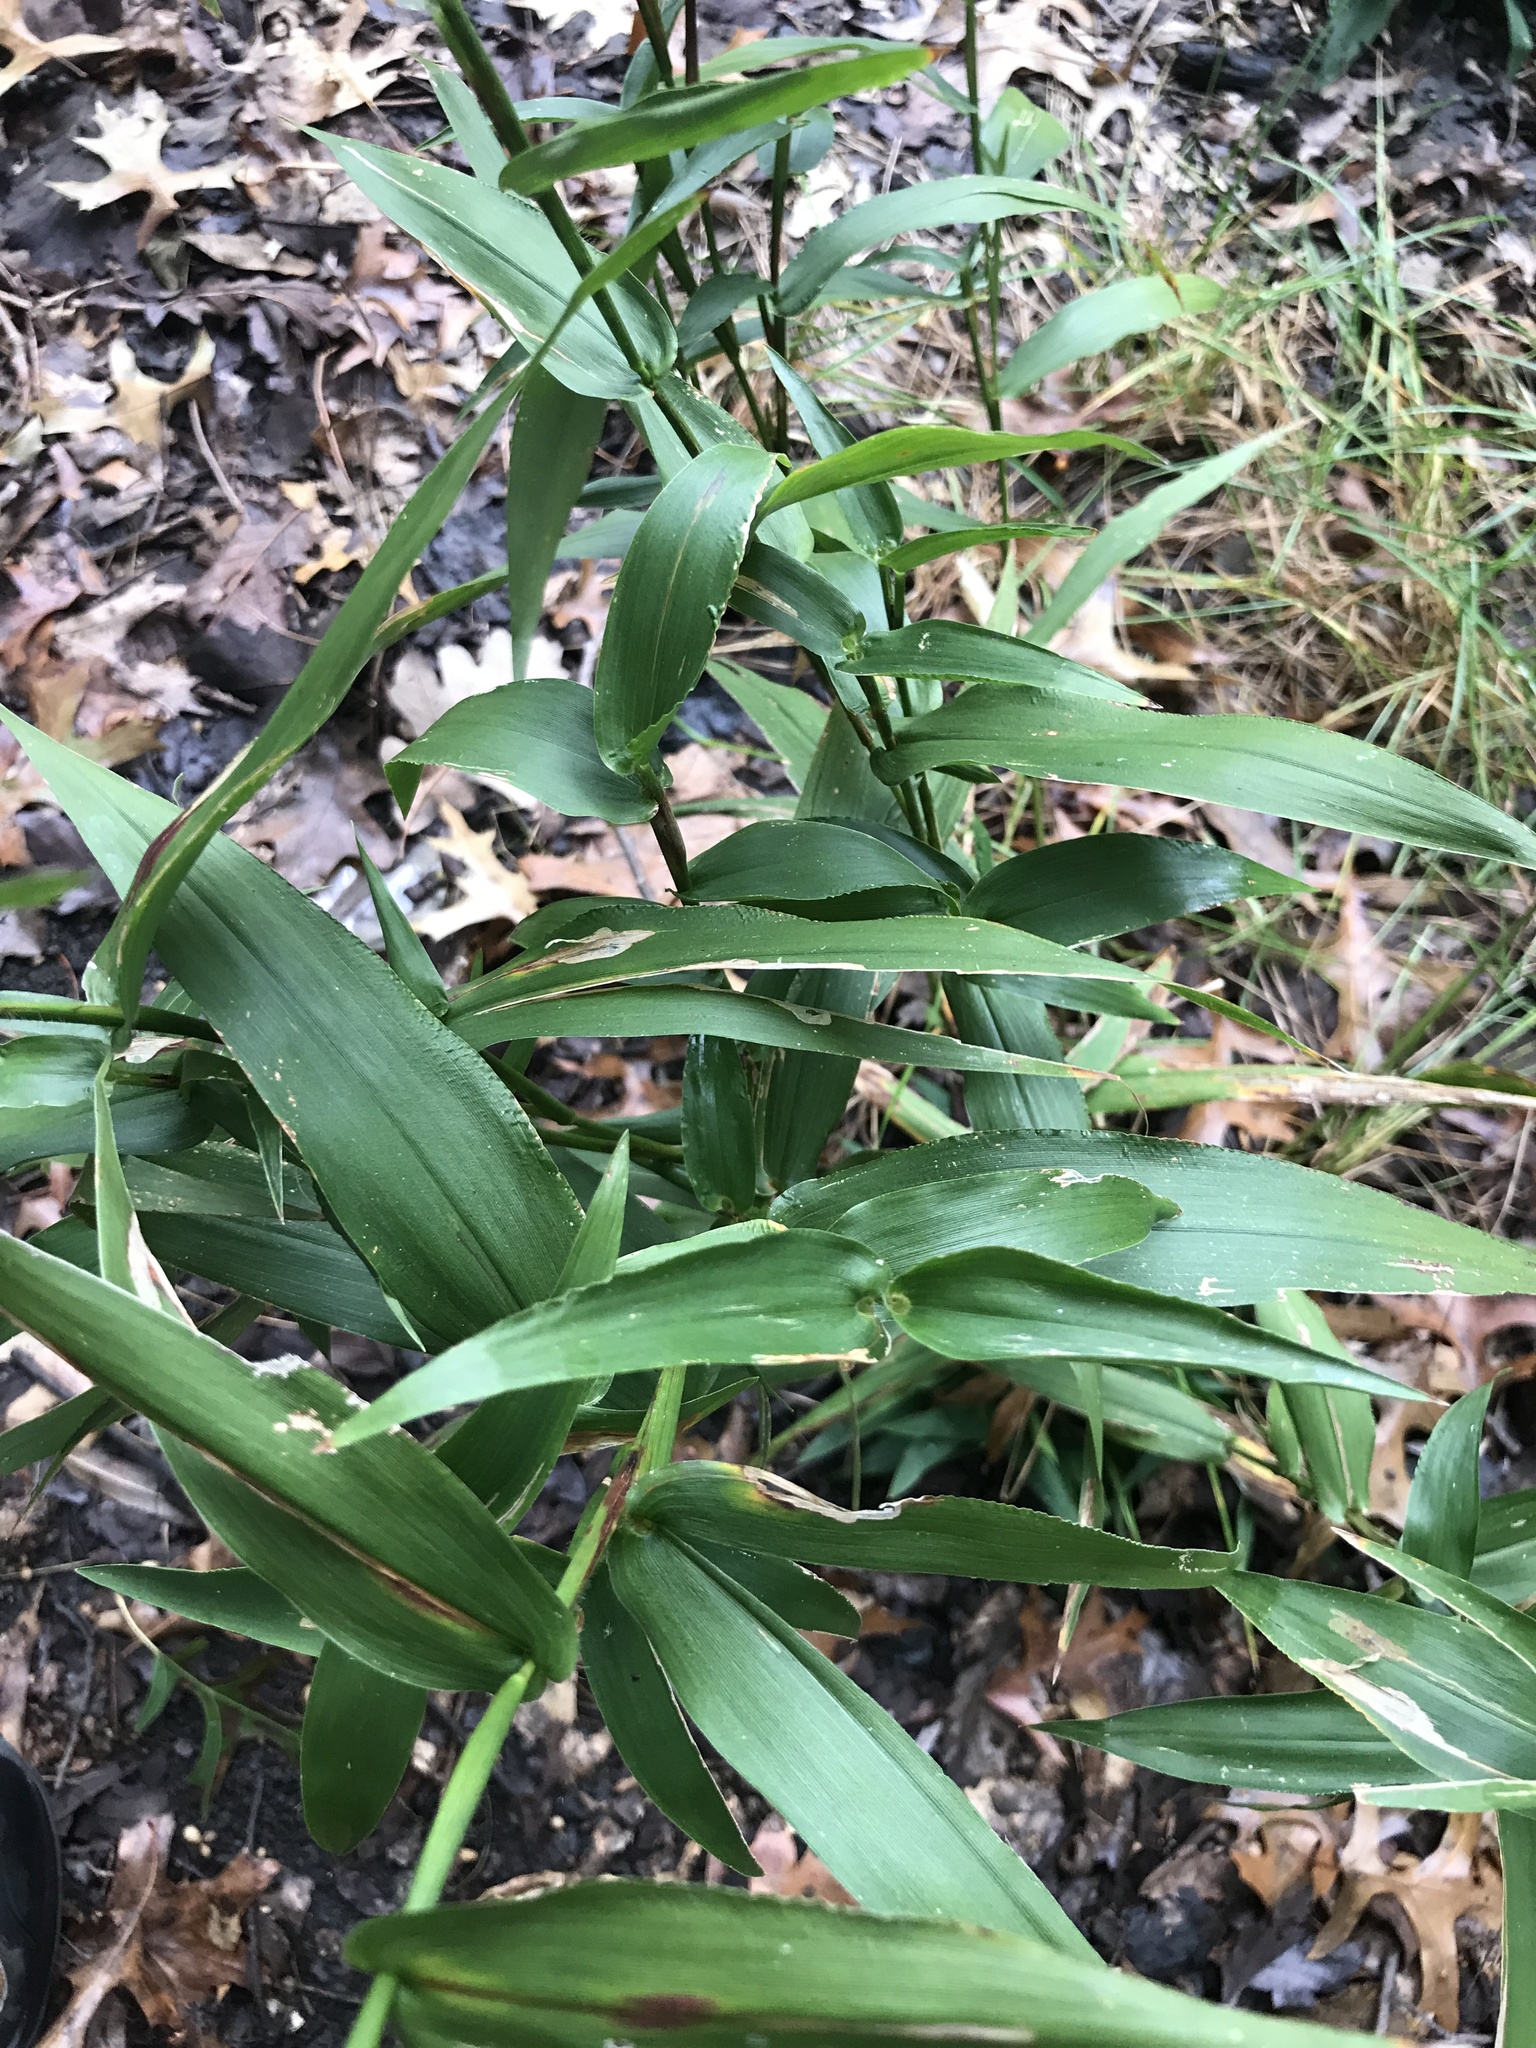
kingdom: Plantae
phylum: Tracheophyta
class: Liliopsida
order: Poales
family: Poaceae
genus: Dichanthelium
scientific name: Dichanthelium clandestinum
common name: Deer-tongue grass
